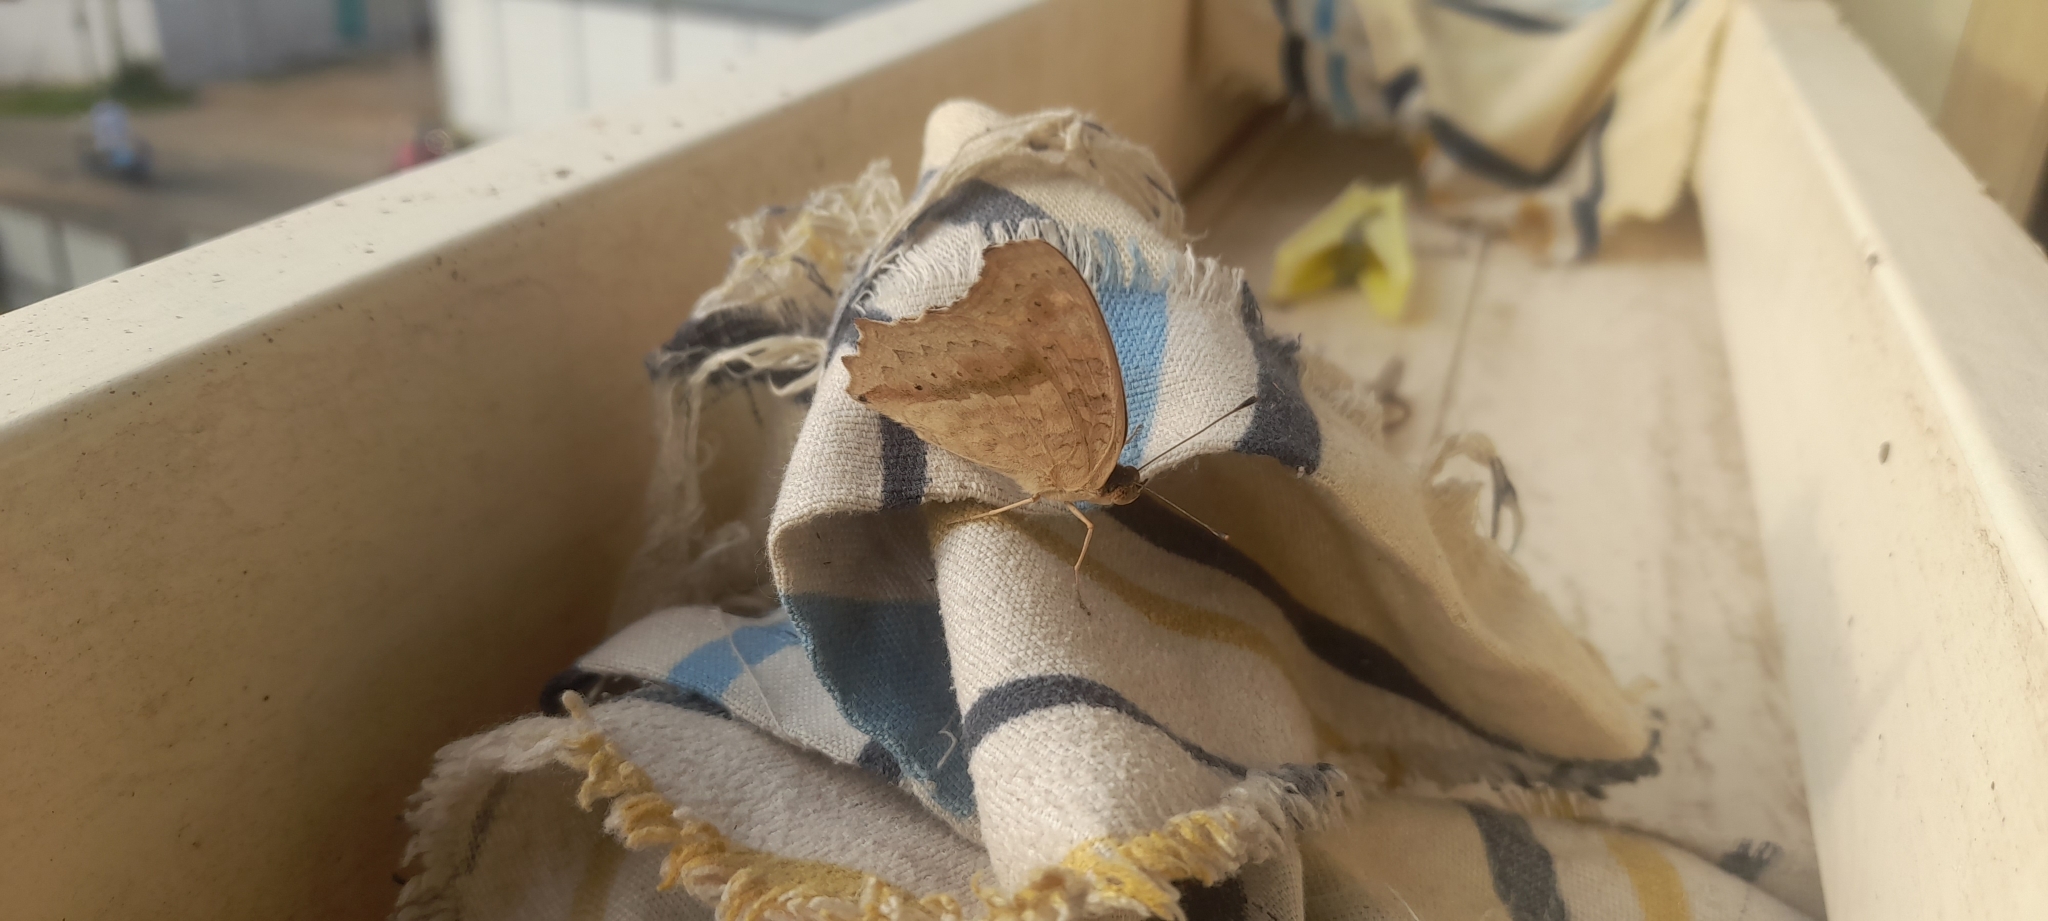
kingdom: Animalia
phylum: Arthropoda
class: Insecta
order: Lepidoptera
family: Nymphalidae
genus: Junonia
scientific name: Junonia lemonias
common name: Lemon pansy
